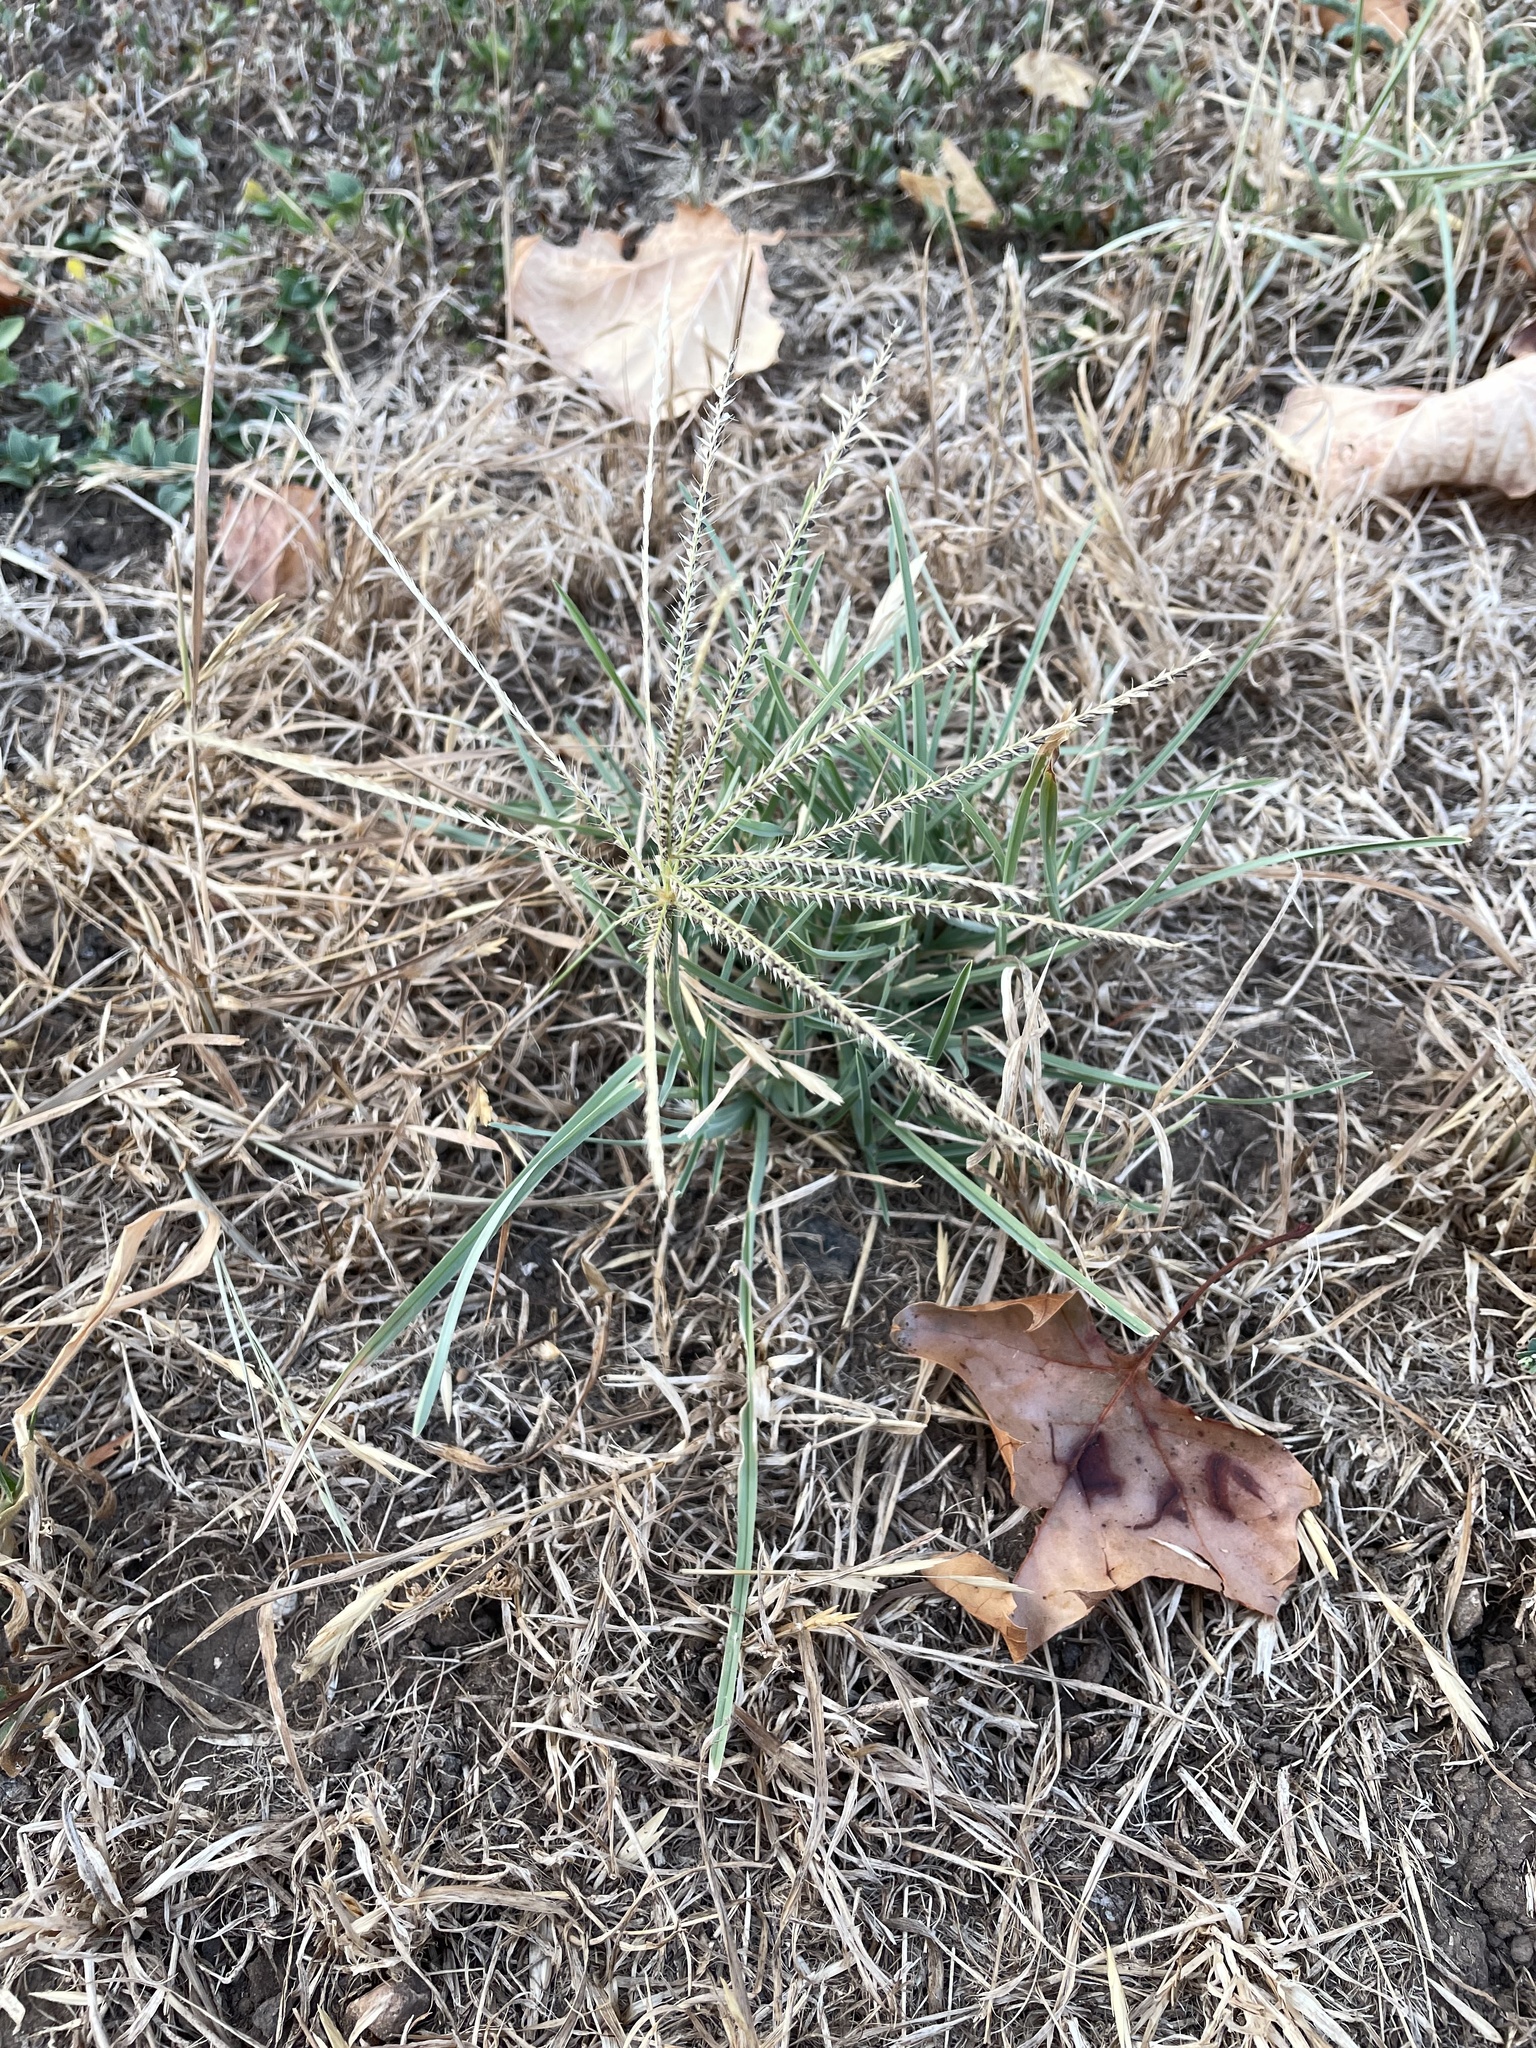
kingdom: Plantae
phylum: Tracheophyta
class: Liliopsida
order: Poales
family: Poaceae
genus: Chloris
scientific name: Chloris subdolichostachya
